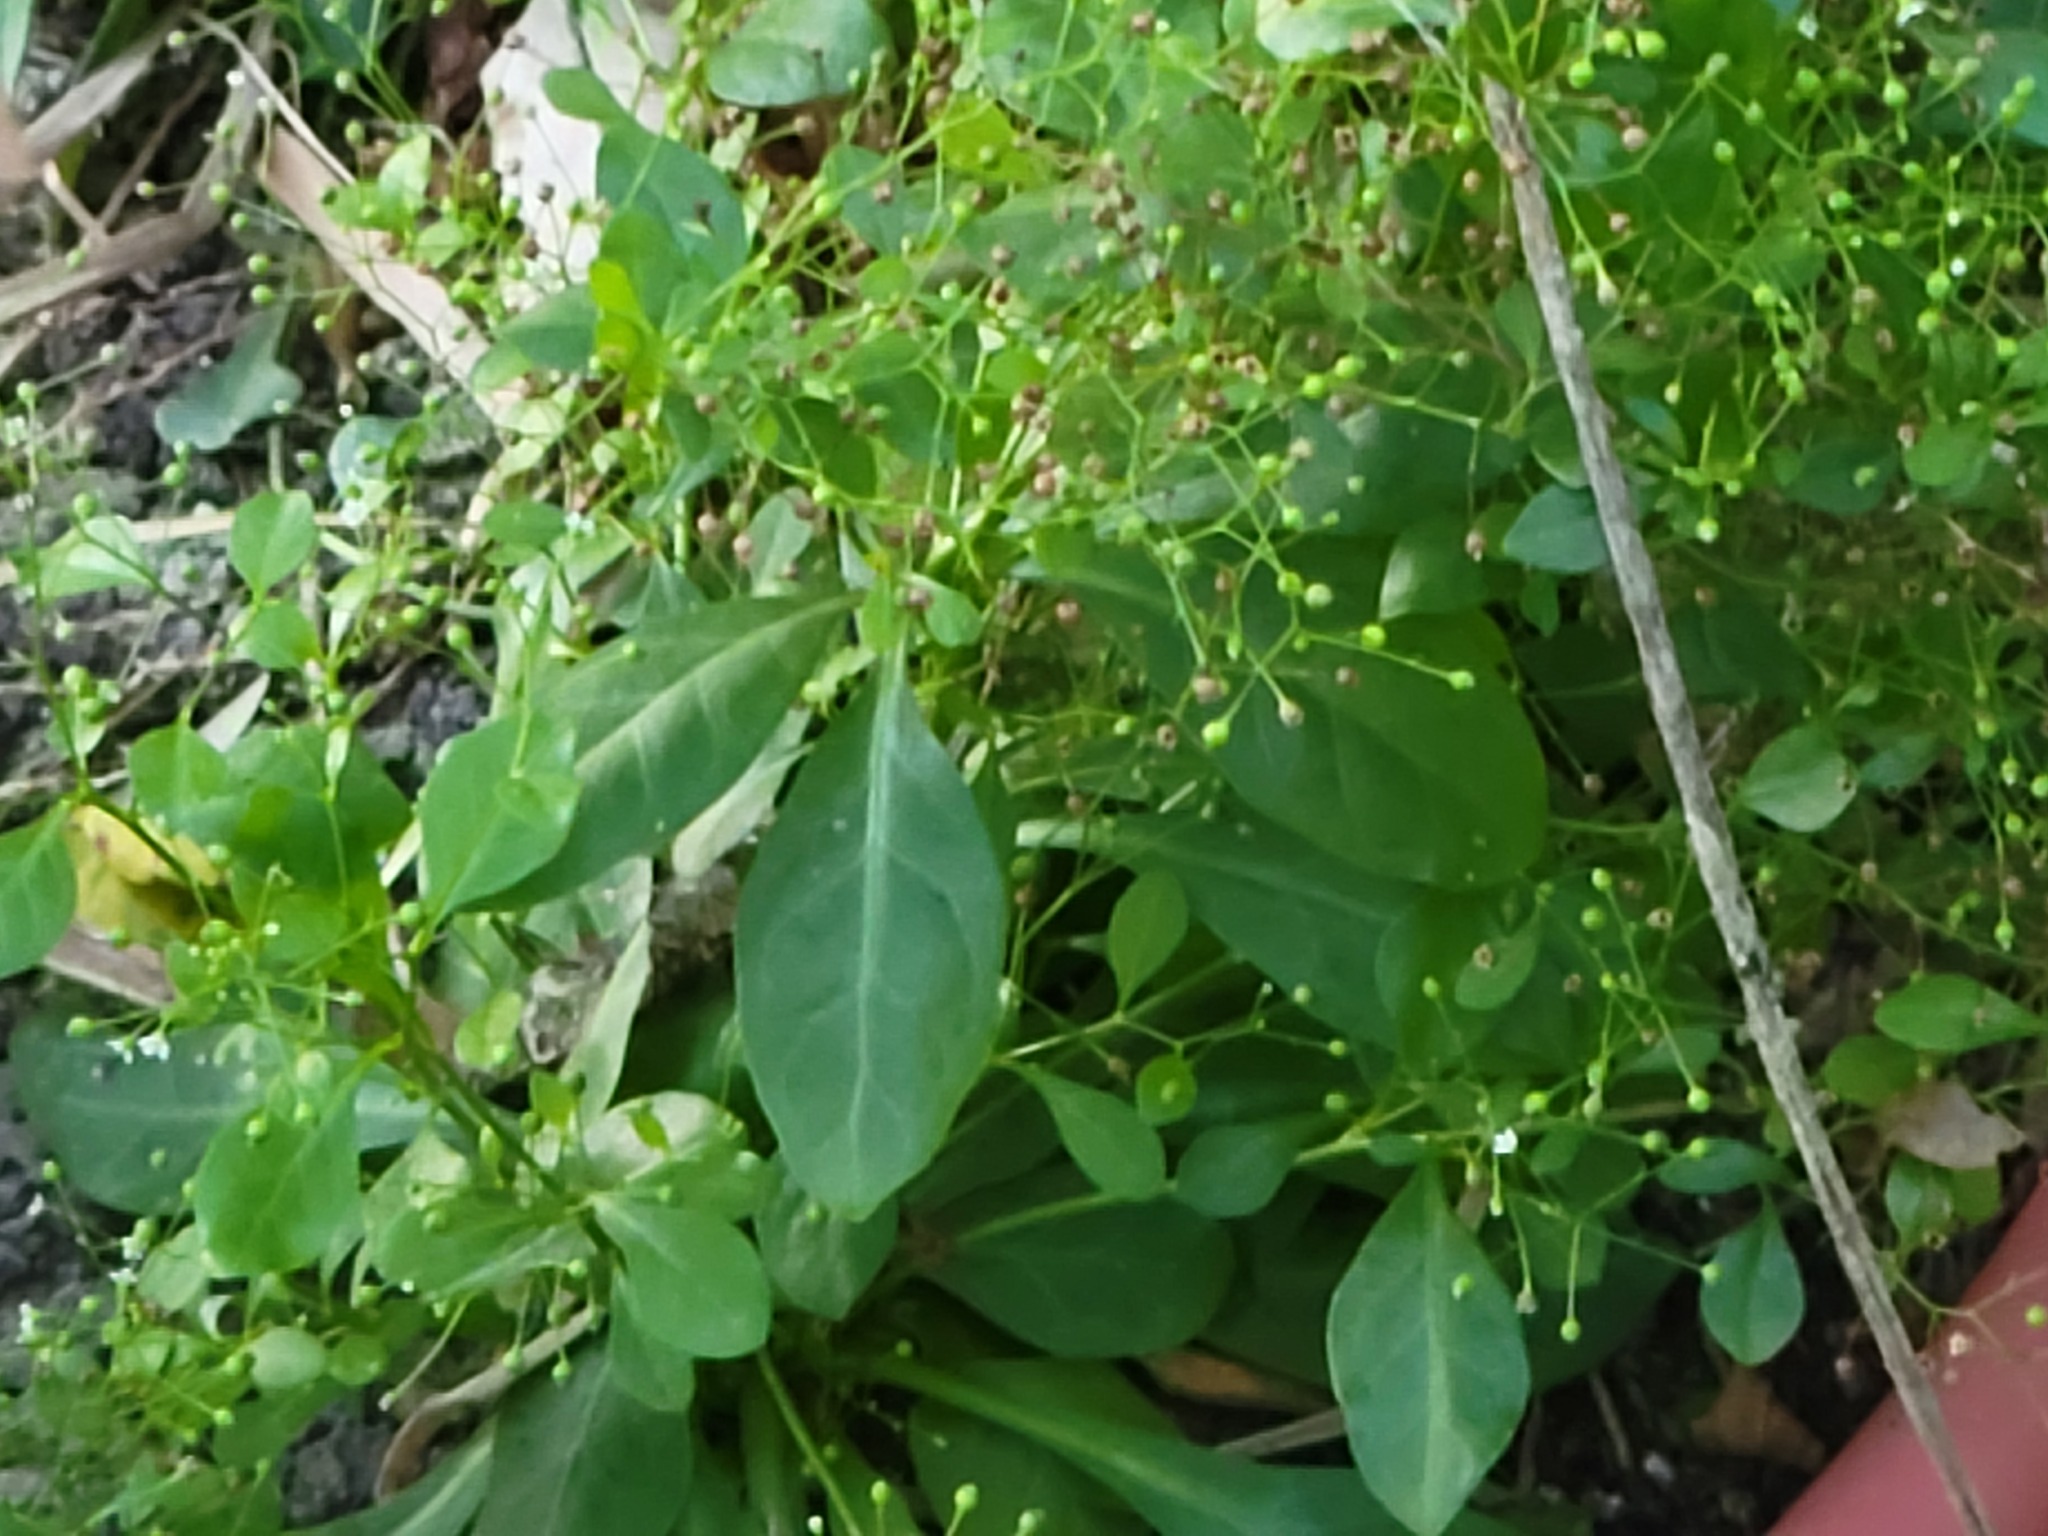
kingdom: Plantae
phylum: Tracheophyta
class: Magnoliopsida
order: Ericales
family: Primulaceae
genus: Samolus
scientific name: Samolus parviflorus
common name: False water pimpernel
